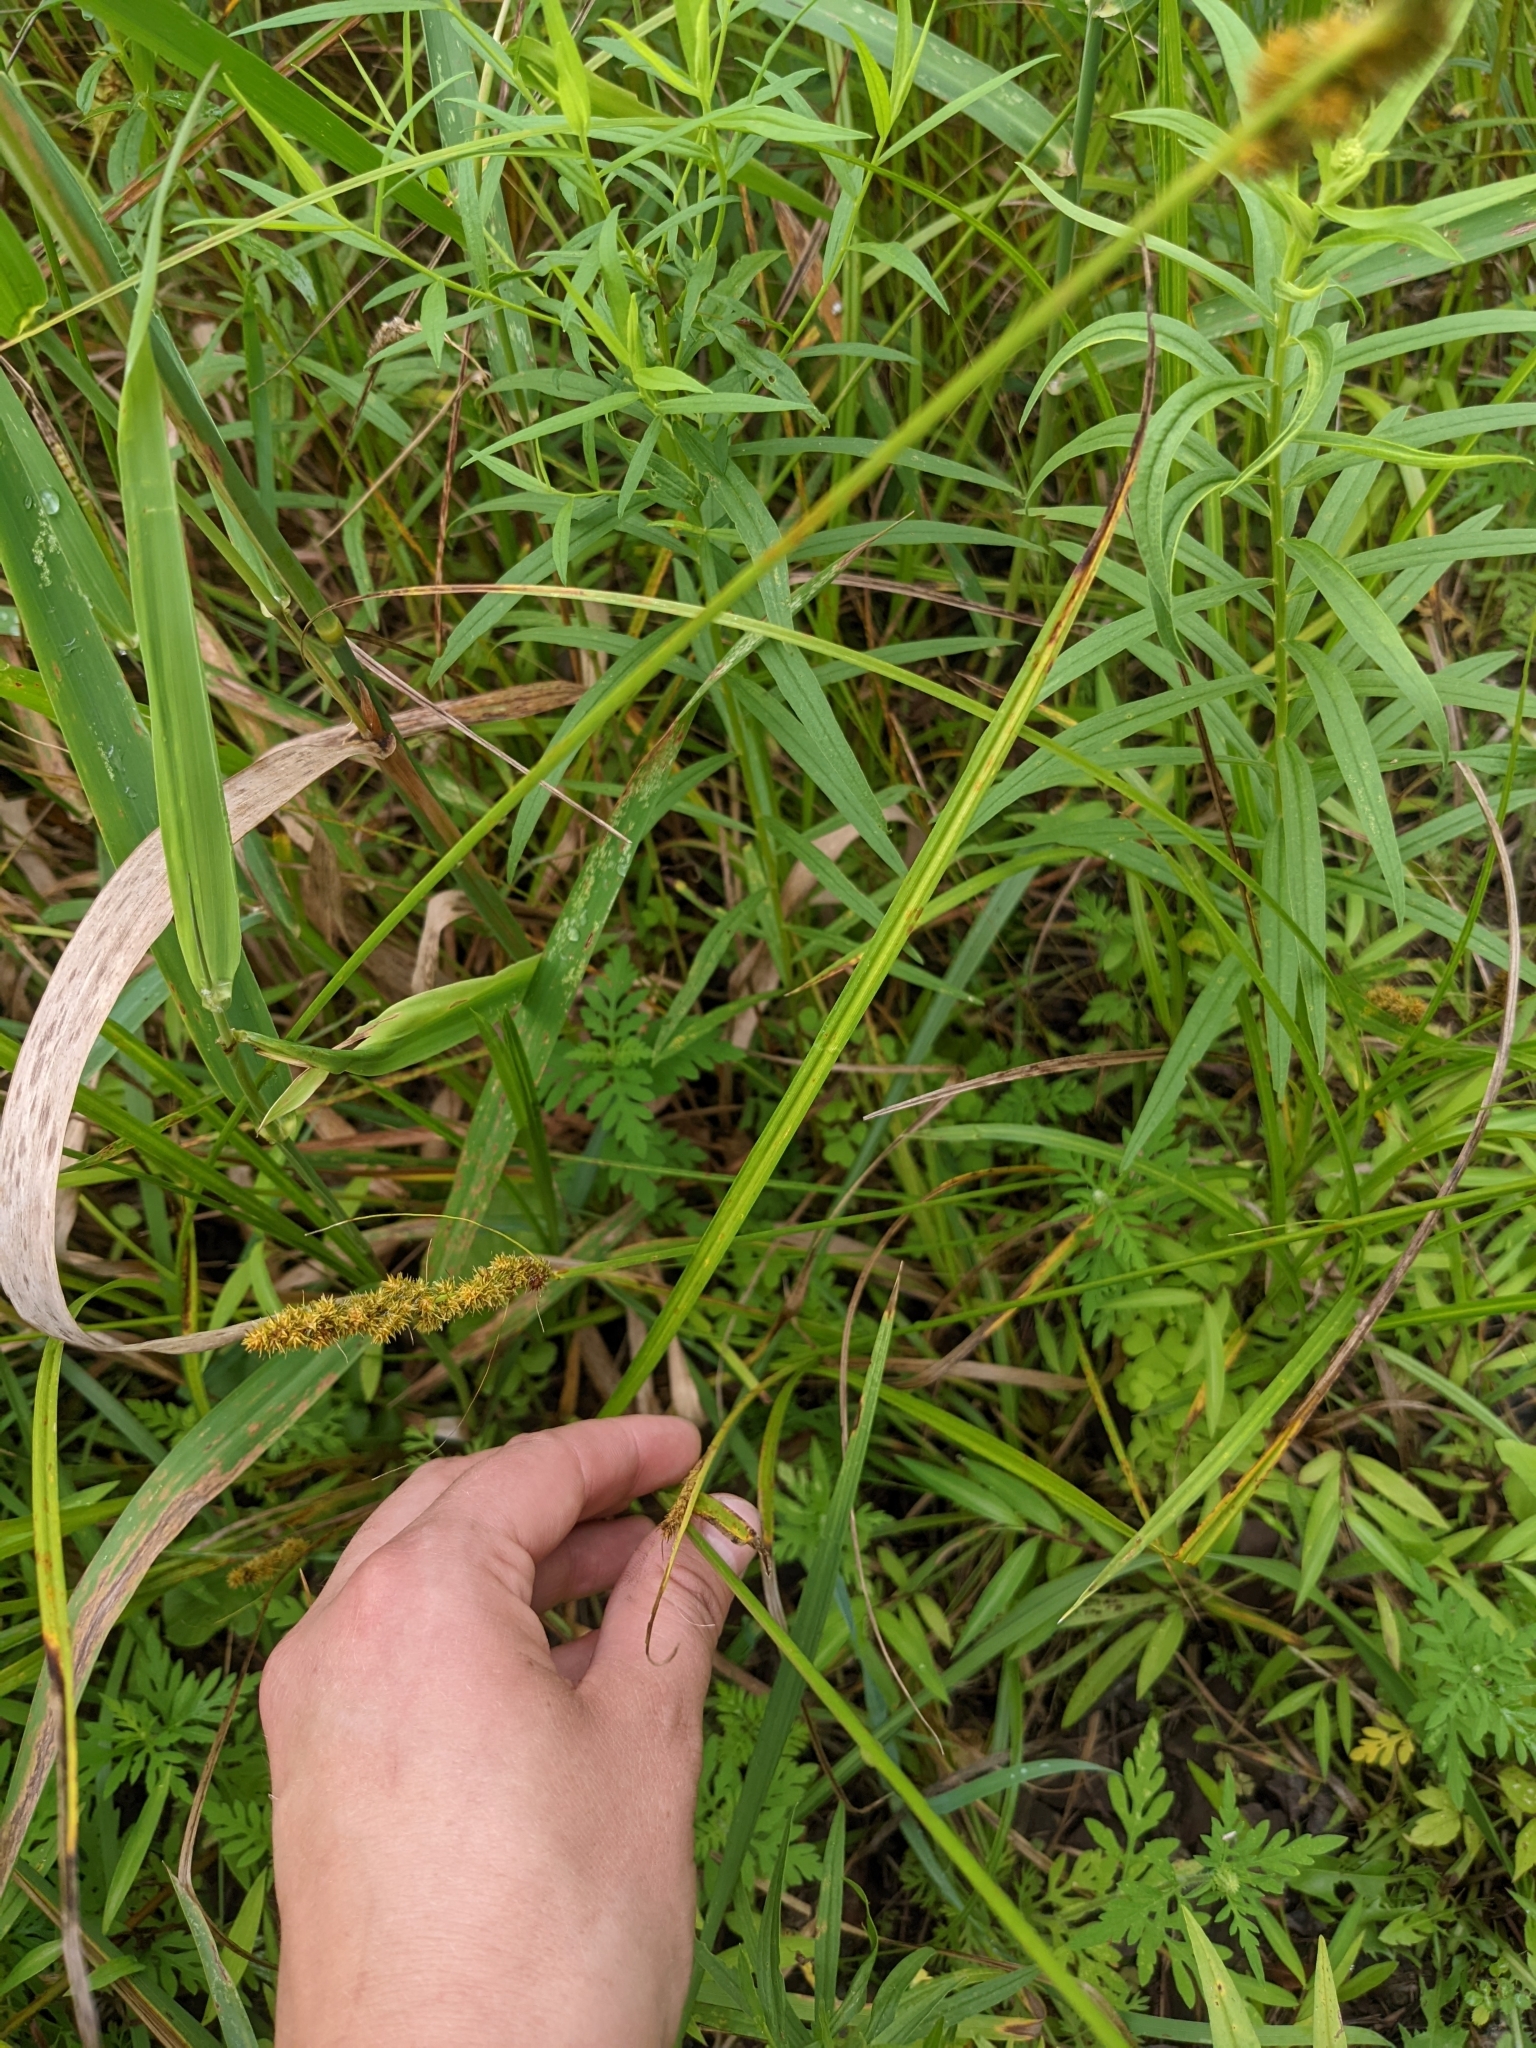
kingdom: Plantae
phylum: Tracheophyta
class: Liliopsida
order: Poales
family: Cyperaceae
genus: Carex
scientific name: Carex vulpinoidea
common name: American fox-sedge
